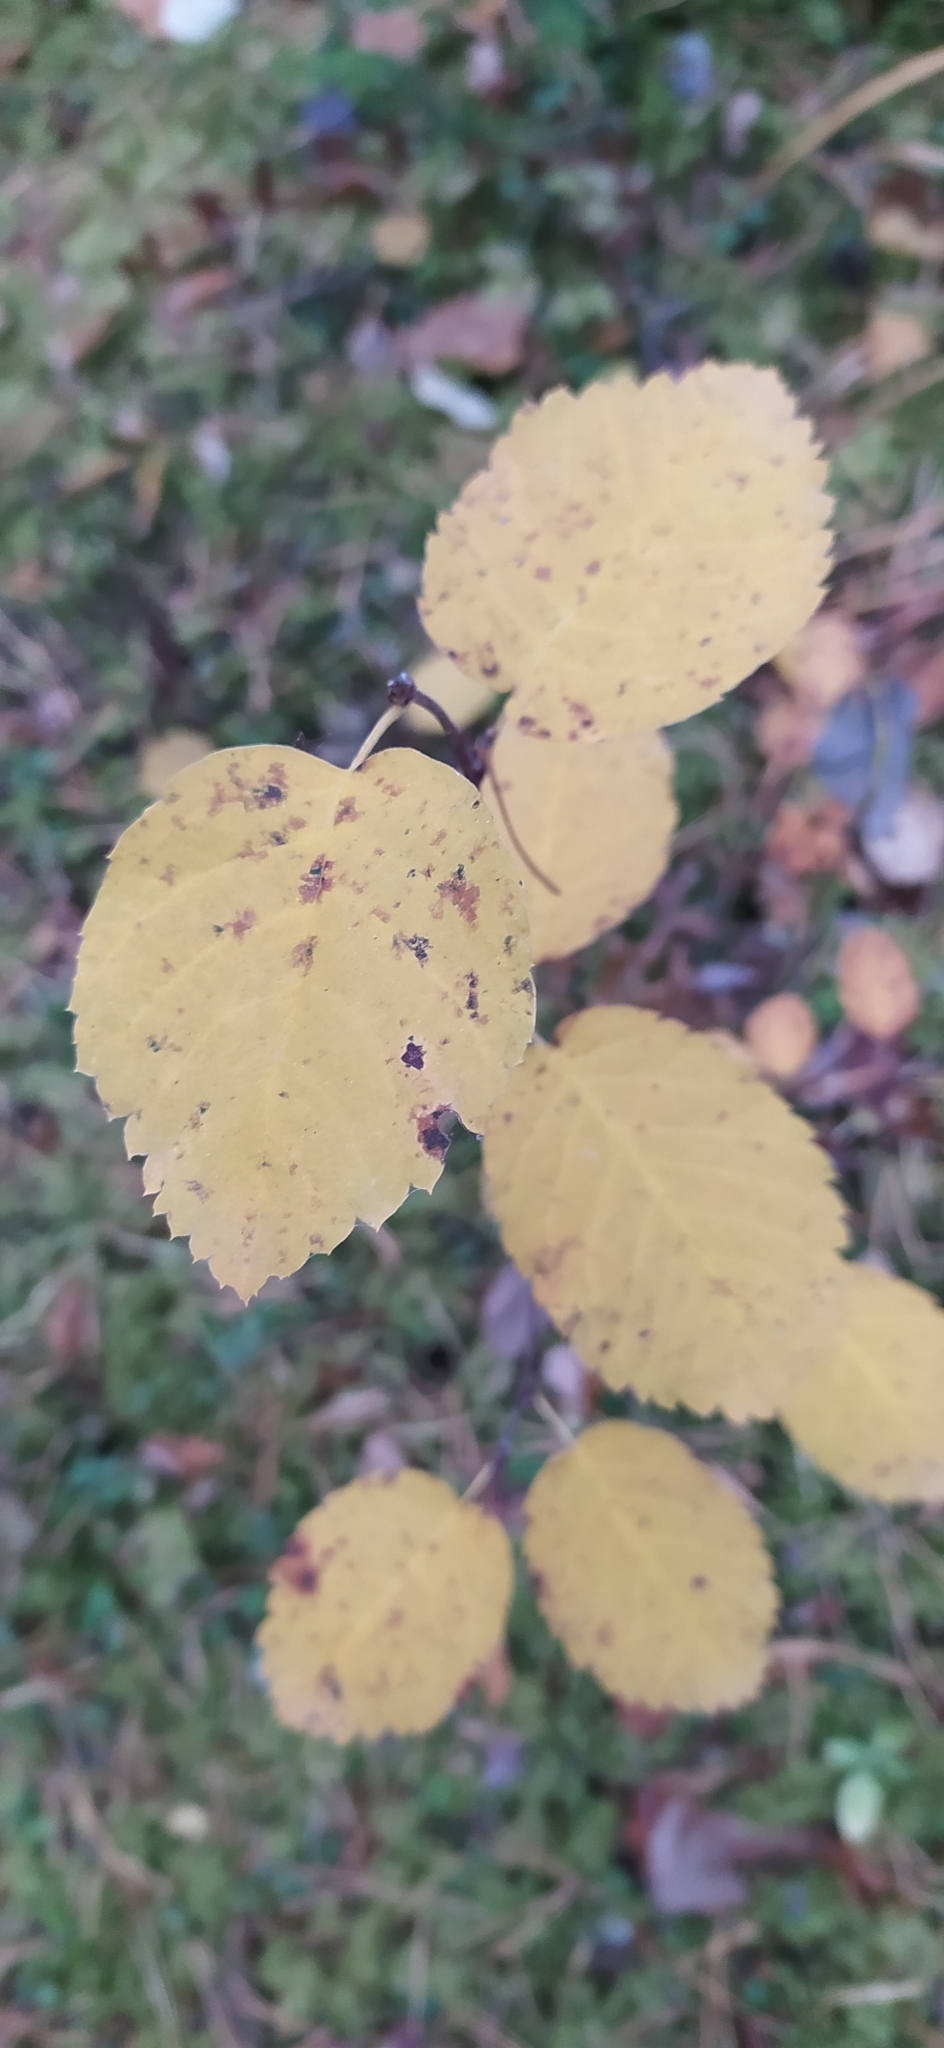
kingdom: Plantae
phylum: Tracheophyta
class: Magnoliopsida
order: Rosales
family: Rosaceae
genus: Amelanchier
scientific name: Amelanchier alnifolia
